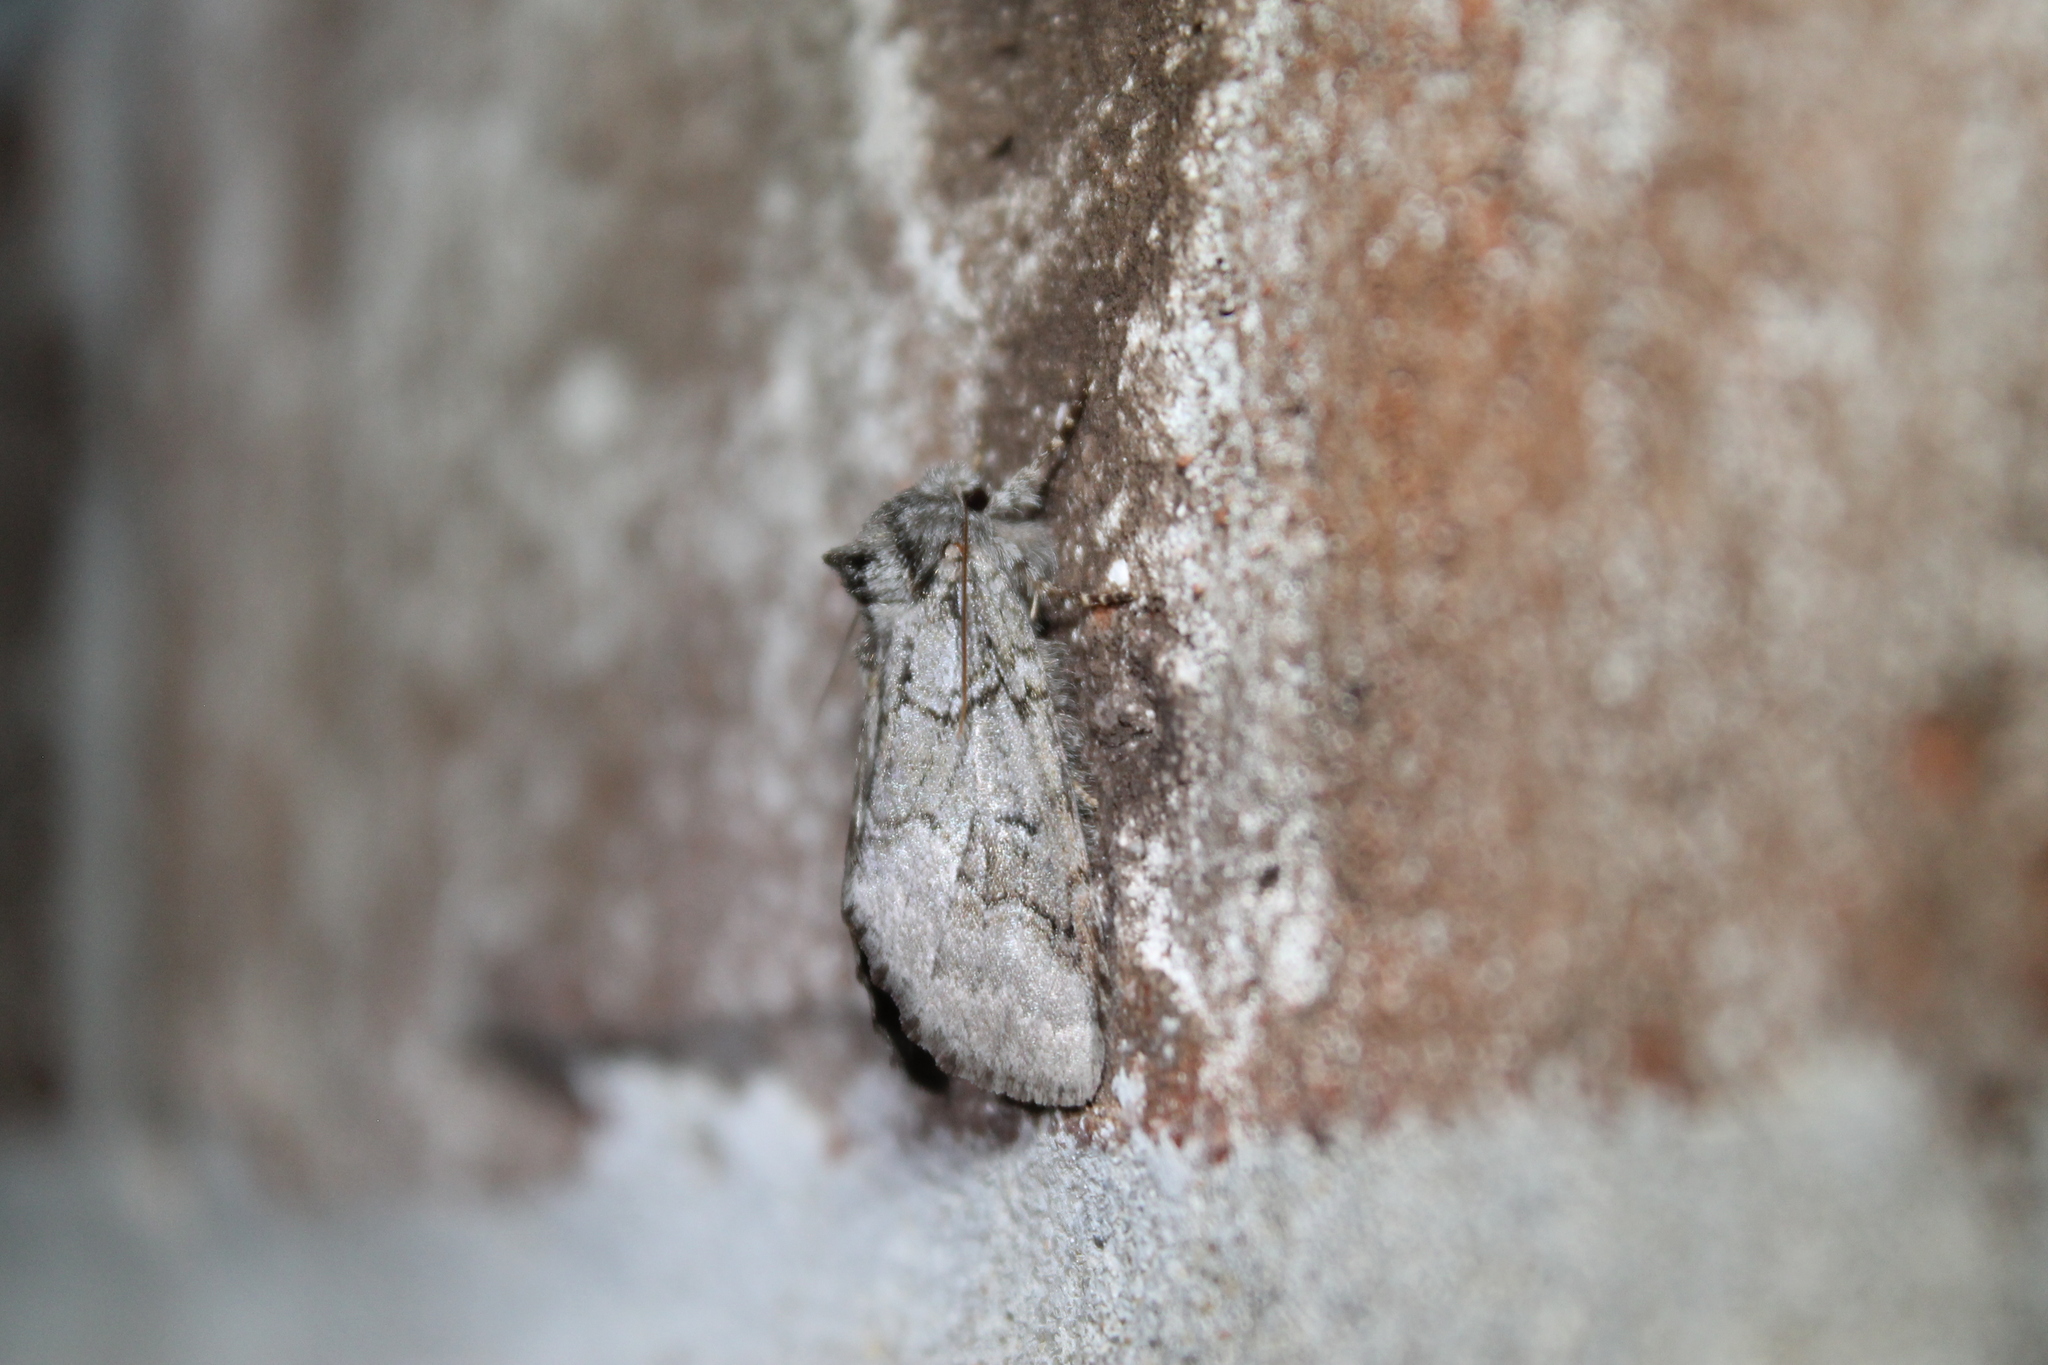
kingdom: Animalia
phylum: Arthropoda
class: Insecta
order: Lepidoptera
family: Notodontidae
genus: Lochmaeus
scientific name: Lochmaeus bilineata
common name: Double-lined prominent
